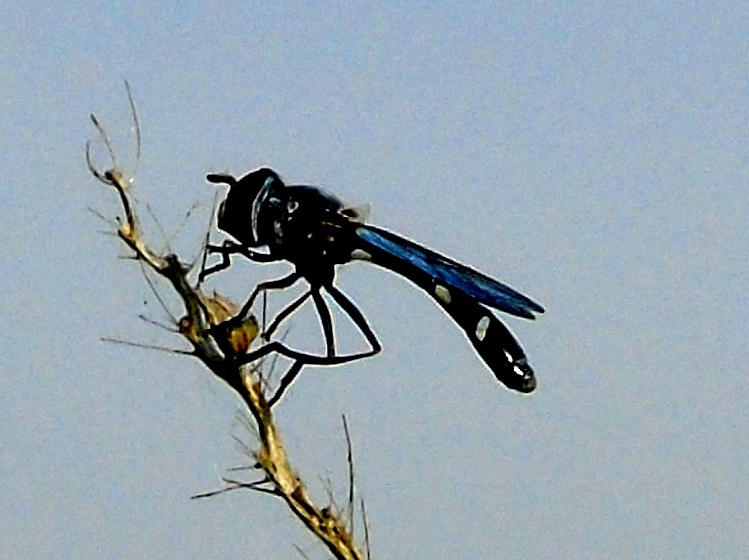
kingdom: Animalia
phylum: Arthropoda
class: Insecta
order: Diptera
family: Syrphidae
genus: Dioprosopa
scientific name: Dioprosopa clavatus
